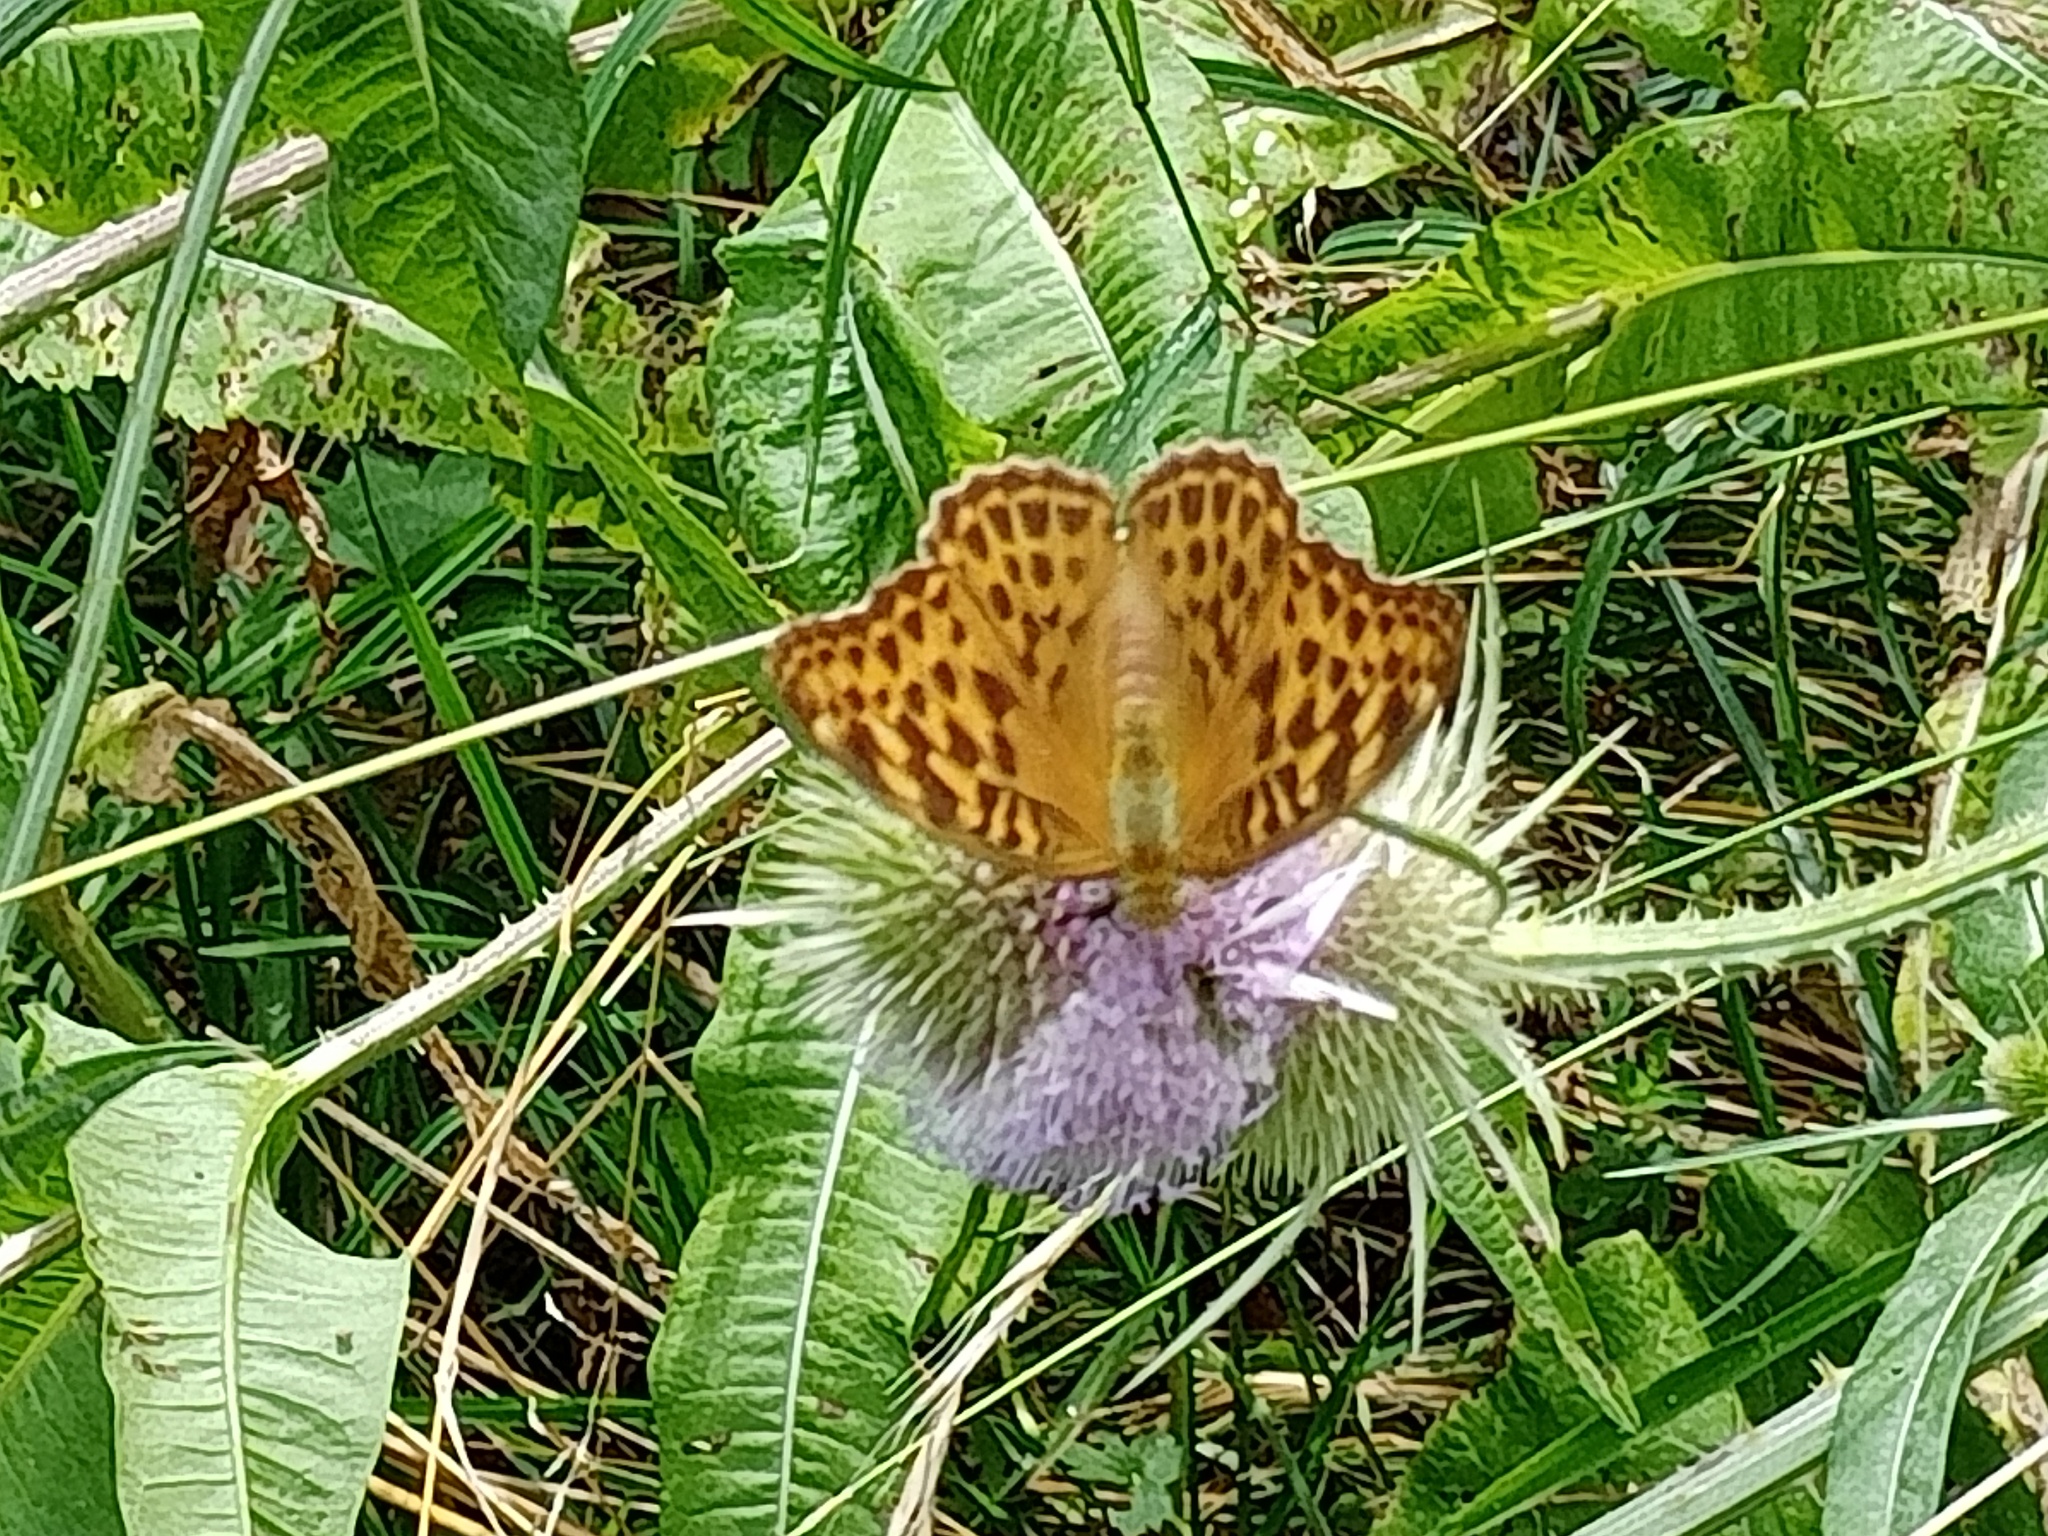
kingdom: Animalia
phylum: Arthropoda
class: Insecta
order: Lepidoptera
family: Nymphalidae
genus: Argynnis
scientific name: Argynnis paphia
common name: Silver-washed fritillary
